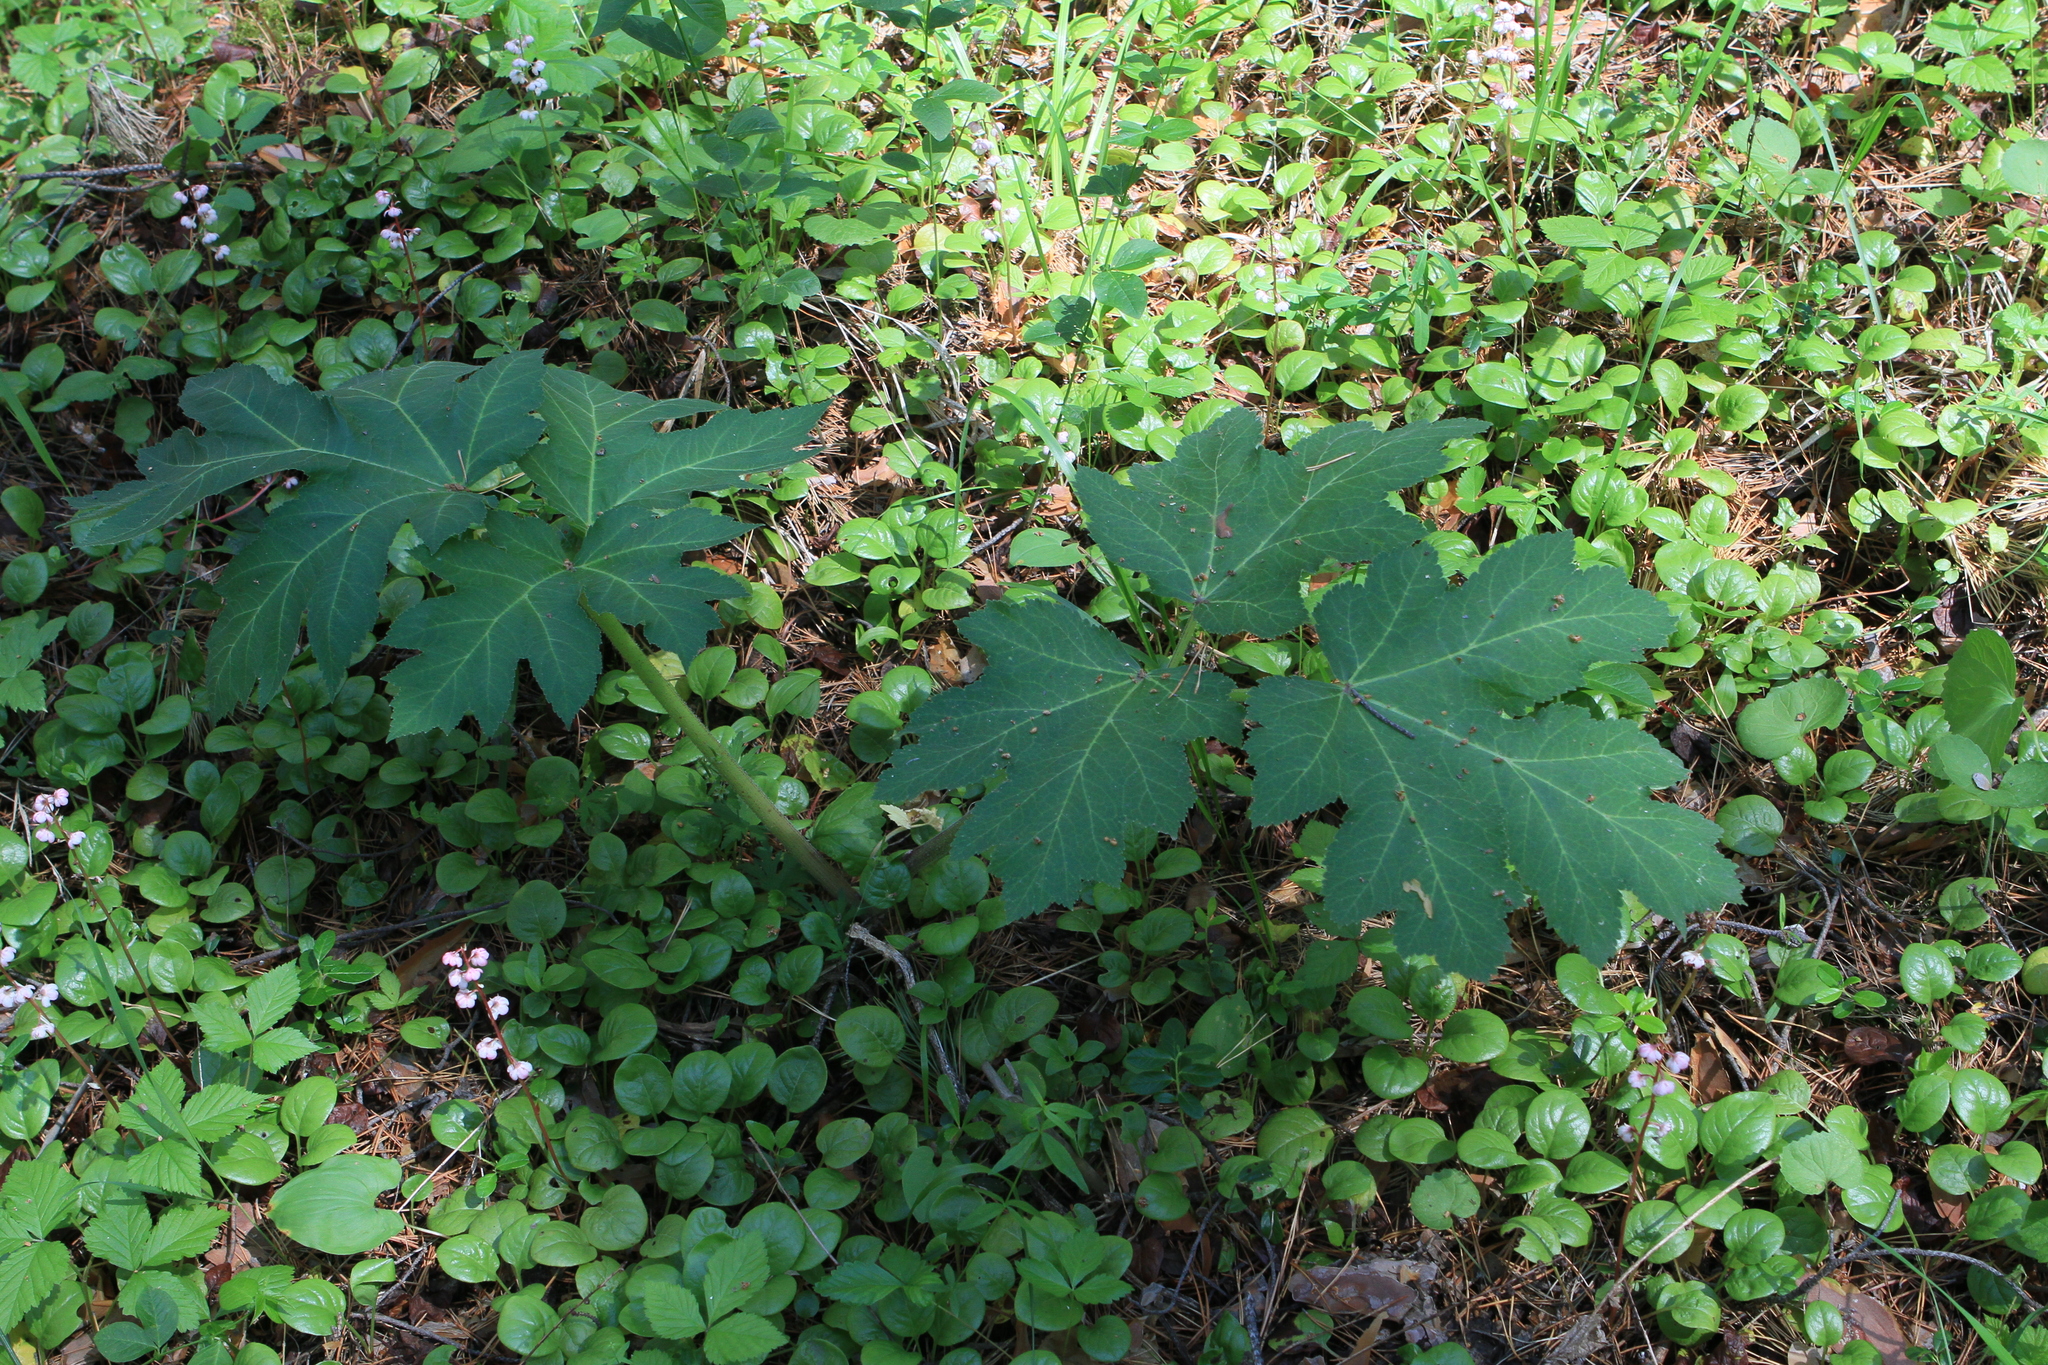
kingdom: Plantae
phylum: Tracheophyta
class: Magnoliopsida
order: Apiales
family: Apiaceae
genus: Heracleum
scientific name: Heracleum dissectum
